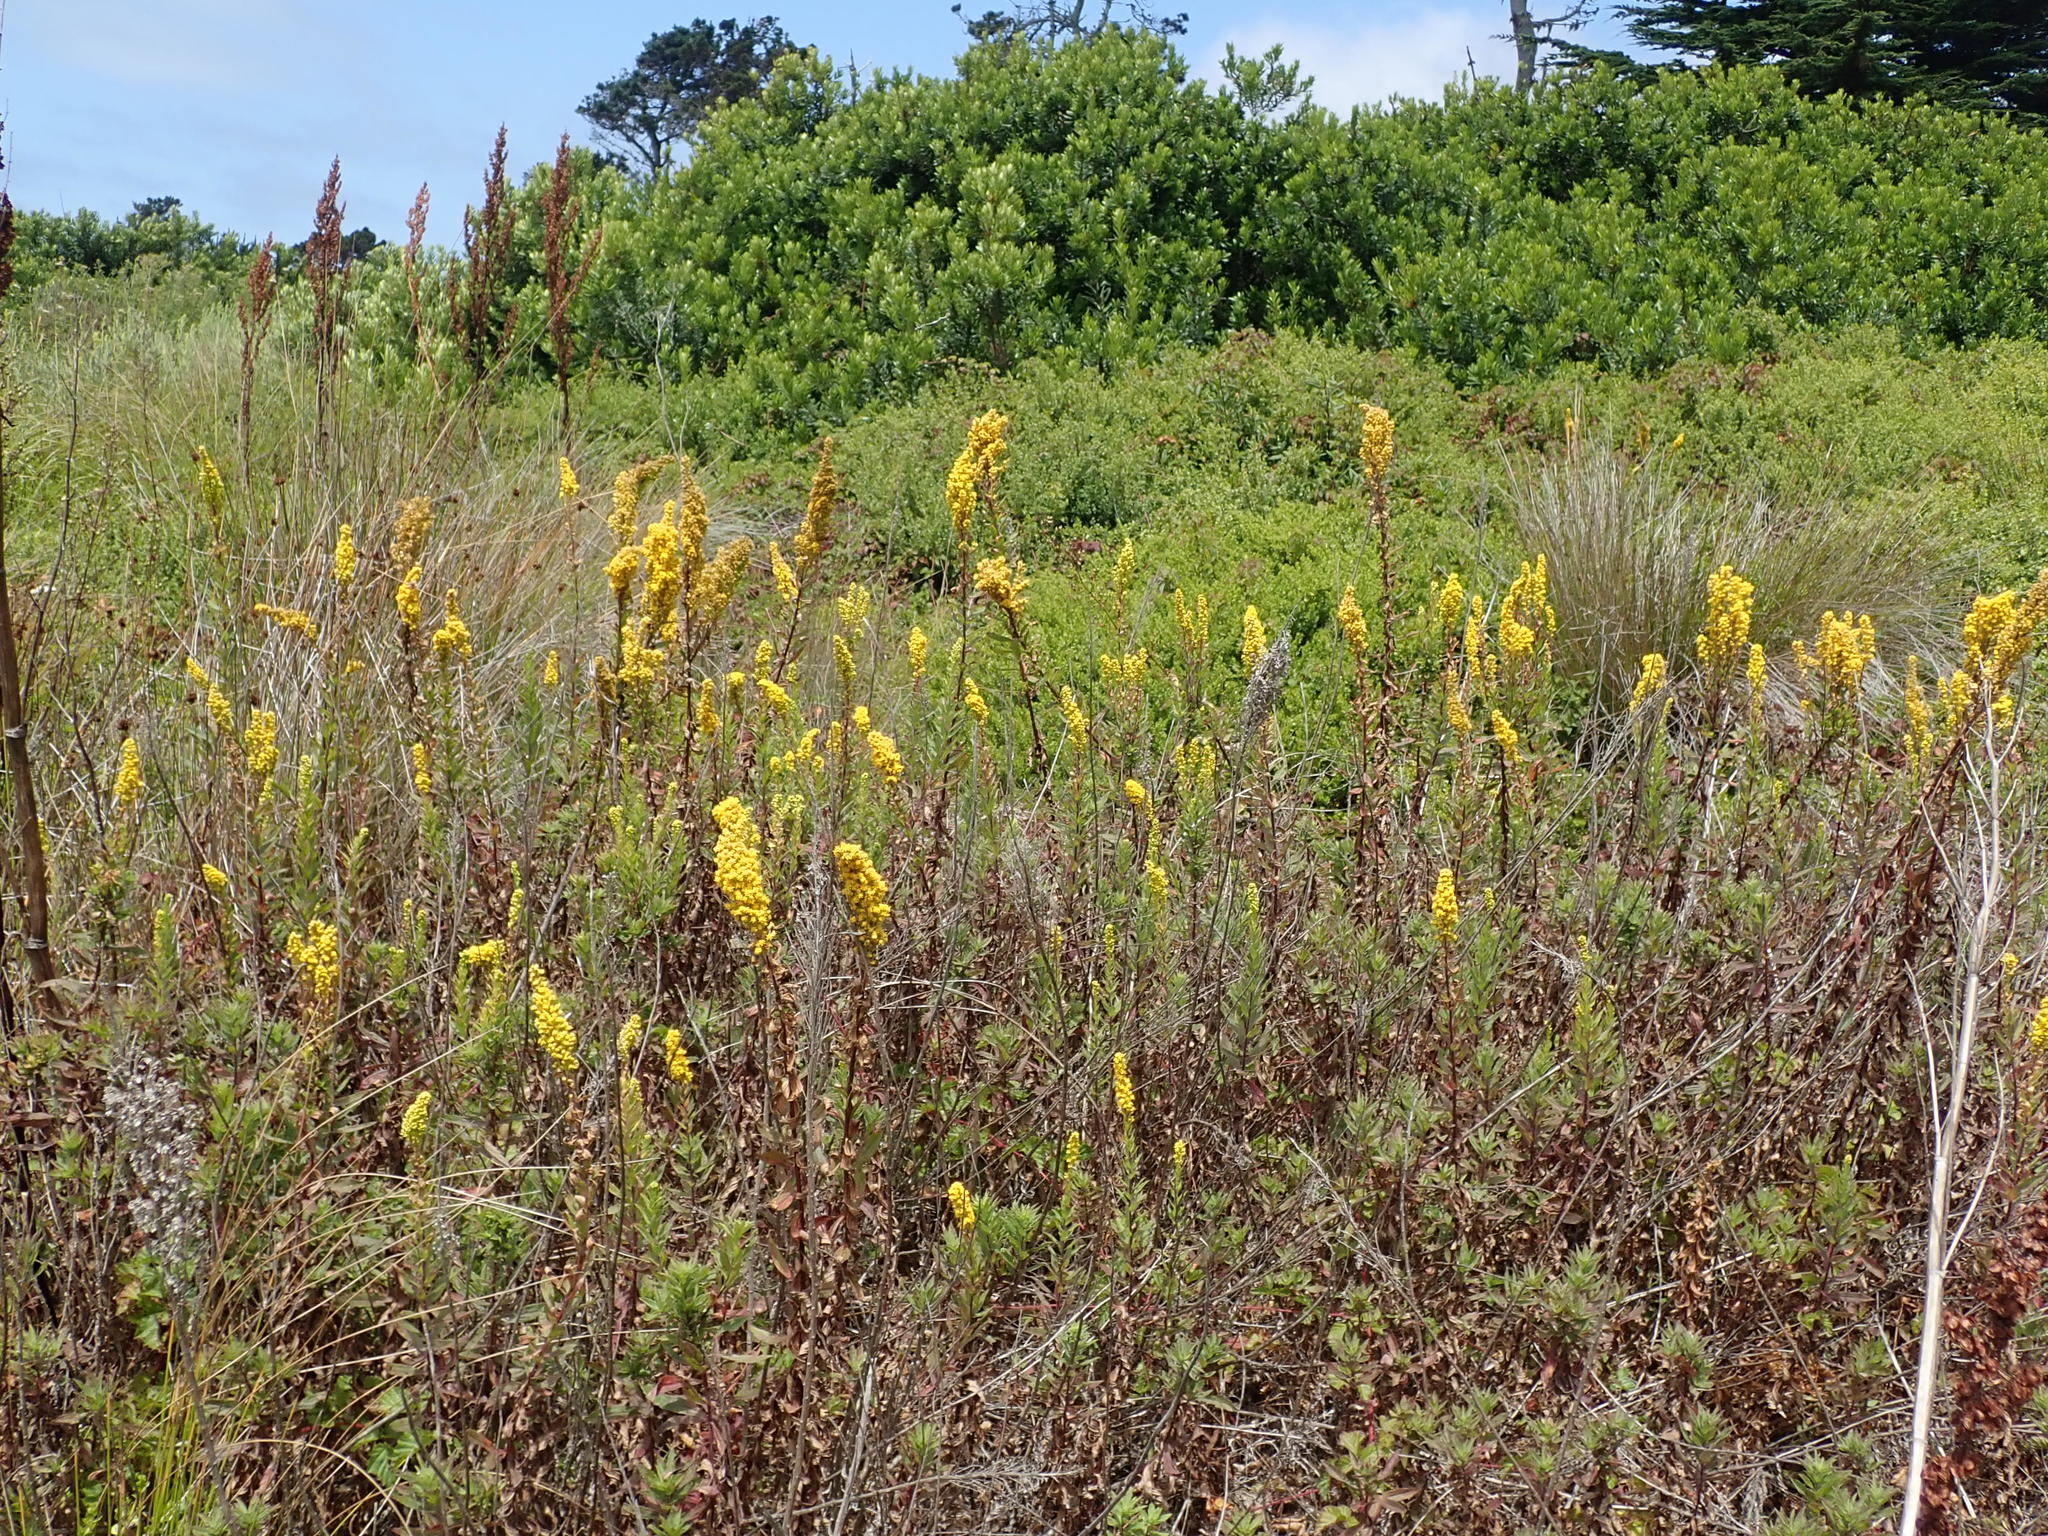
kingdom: Plantae
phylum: Tracheophyta
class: Magnoliopsida
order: Asterales
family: Asteraceae
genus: Solidago
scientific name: Solidago elongata
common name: Cascade canada goldenrod
